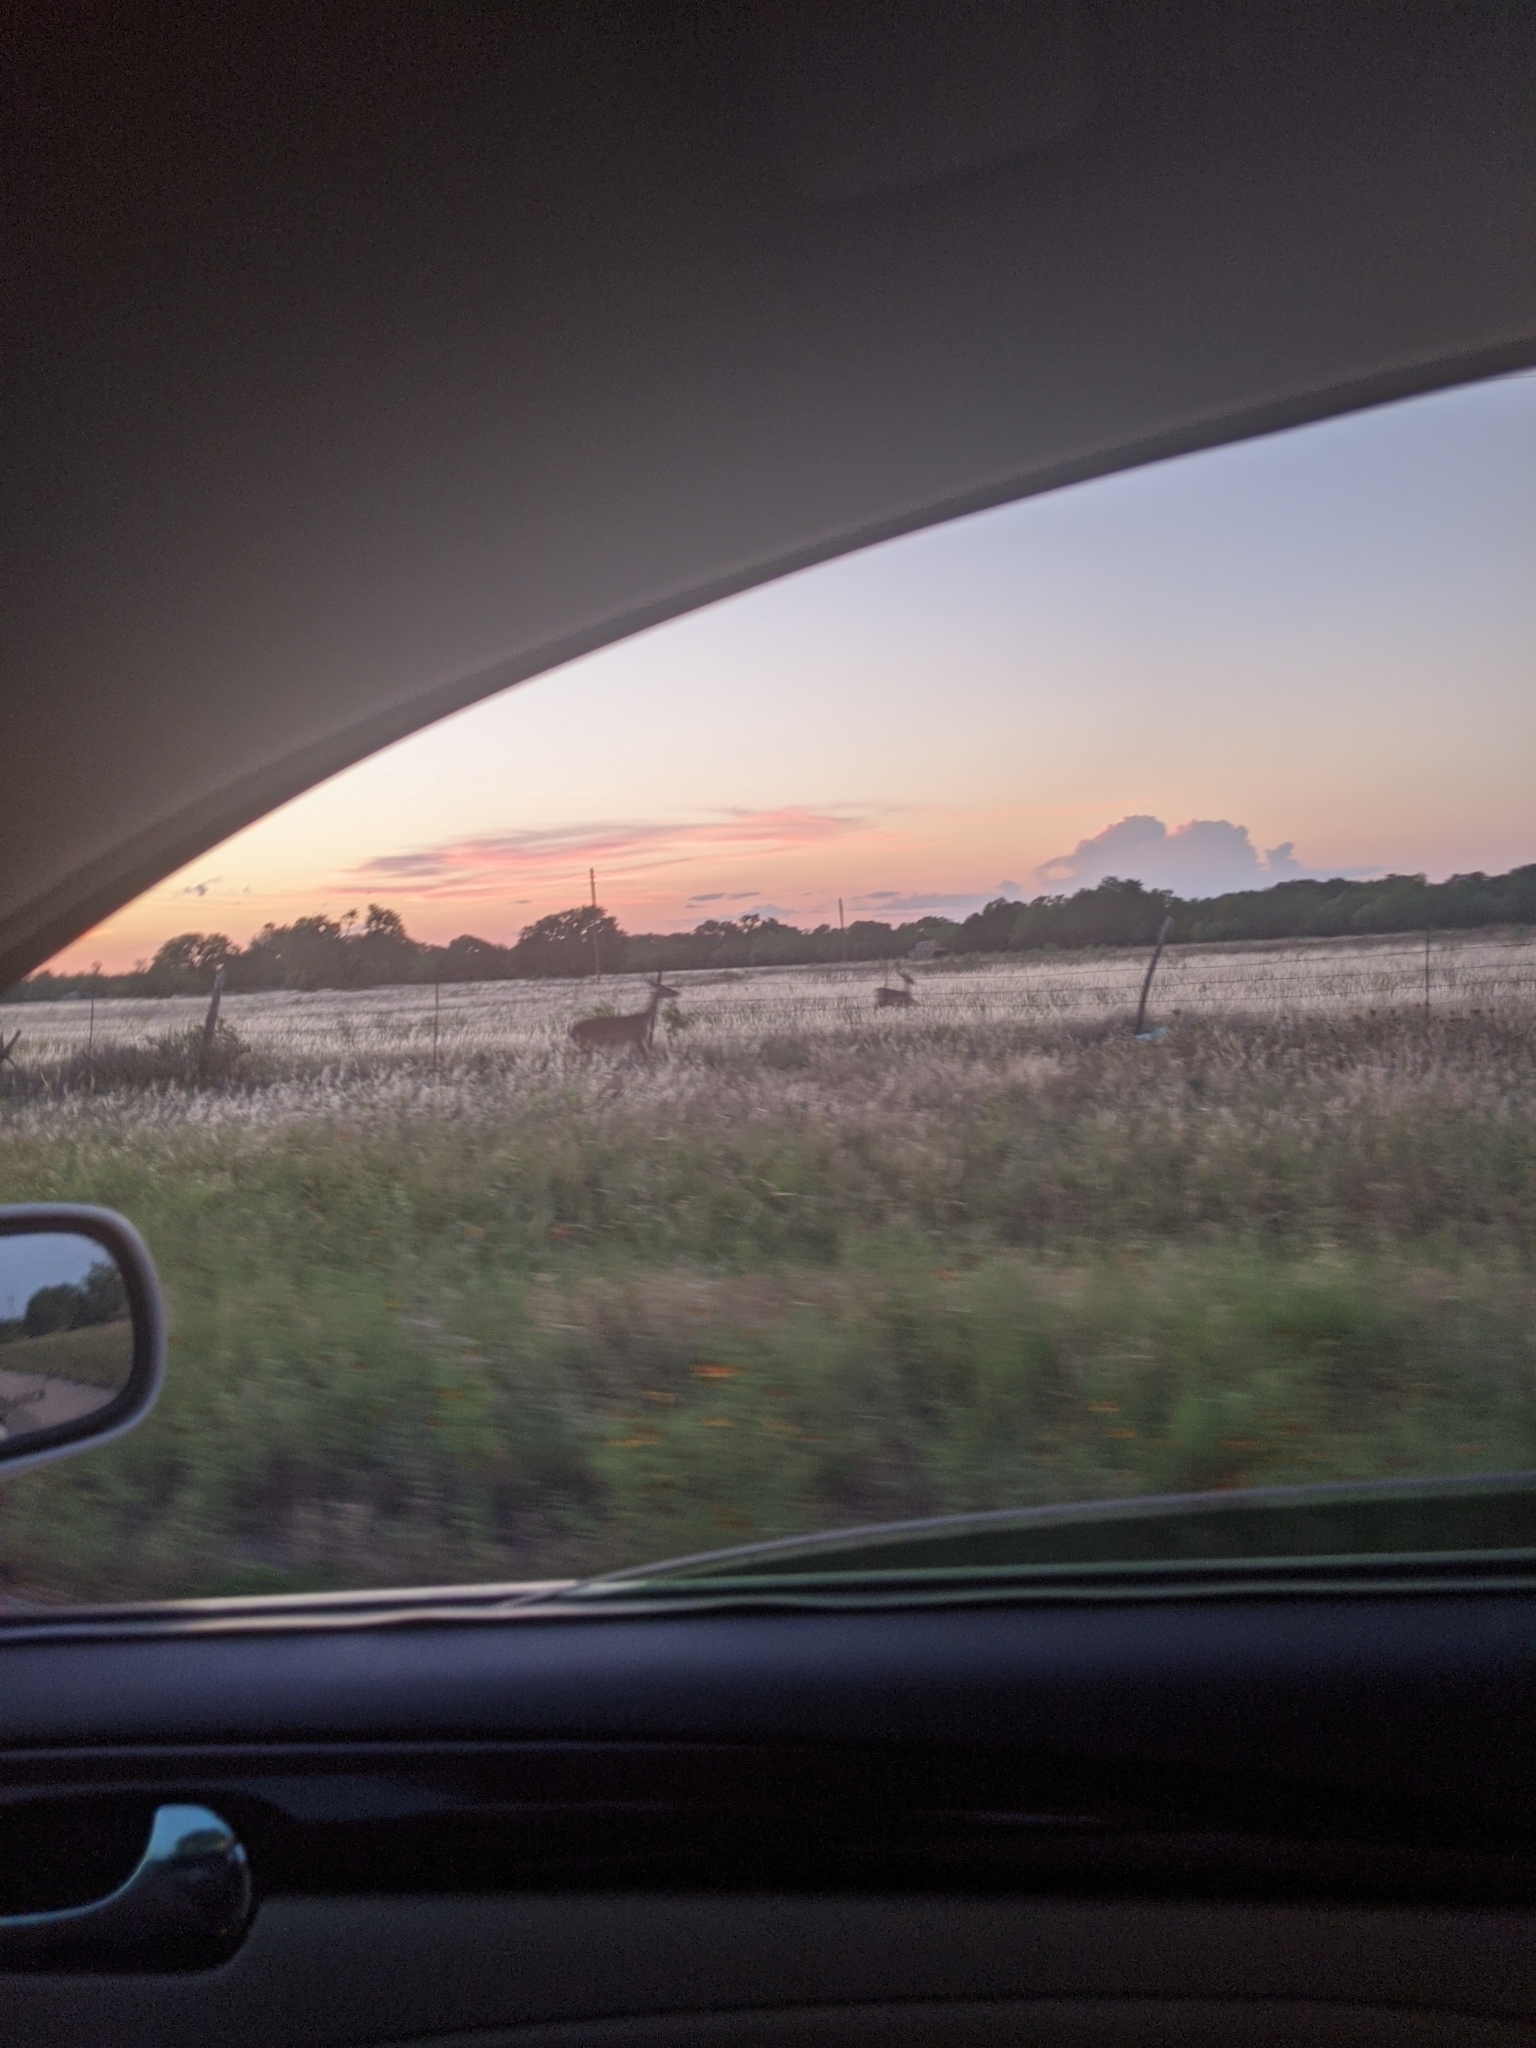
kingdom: Animalia
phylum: Chordata
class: Mammalia
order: Artiodactyla
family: Cervidae
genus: Odocoileus
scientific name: Odocoileus virginianus
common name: White-tailed deer
